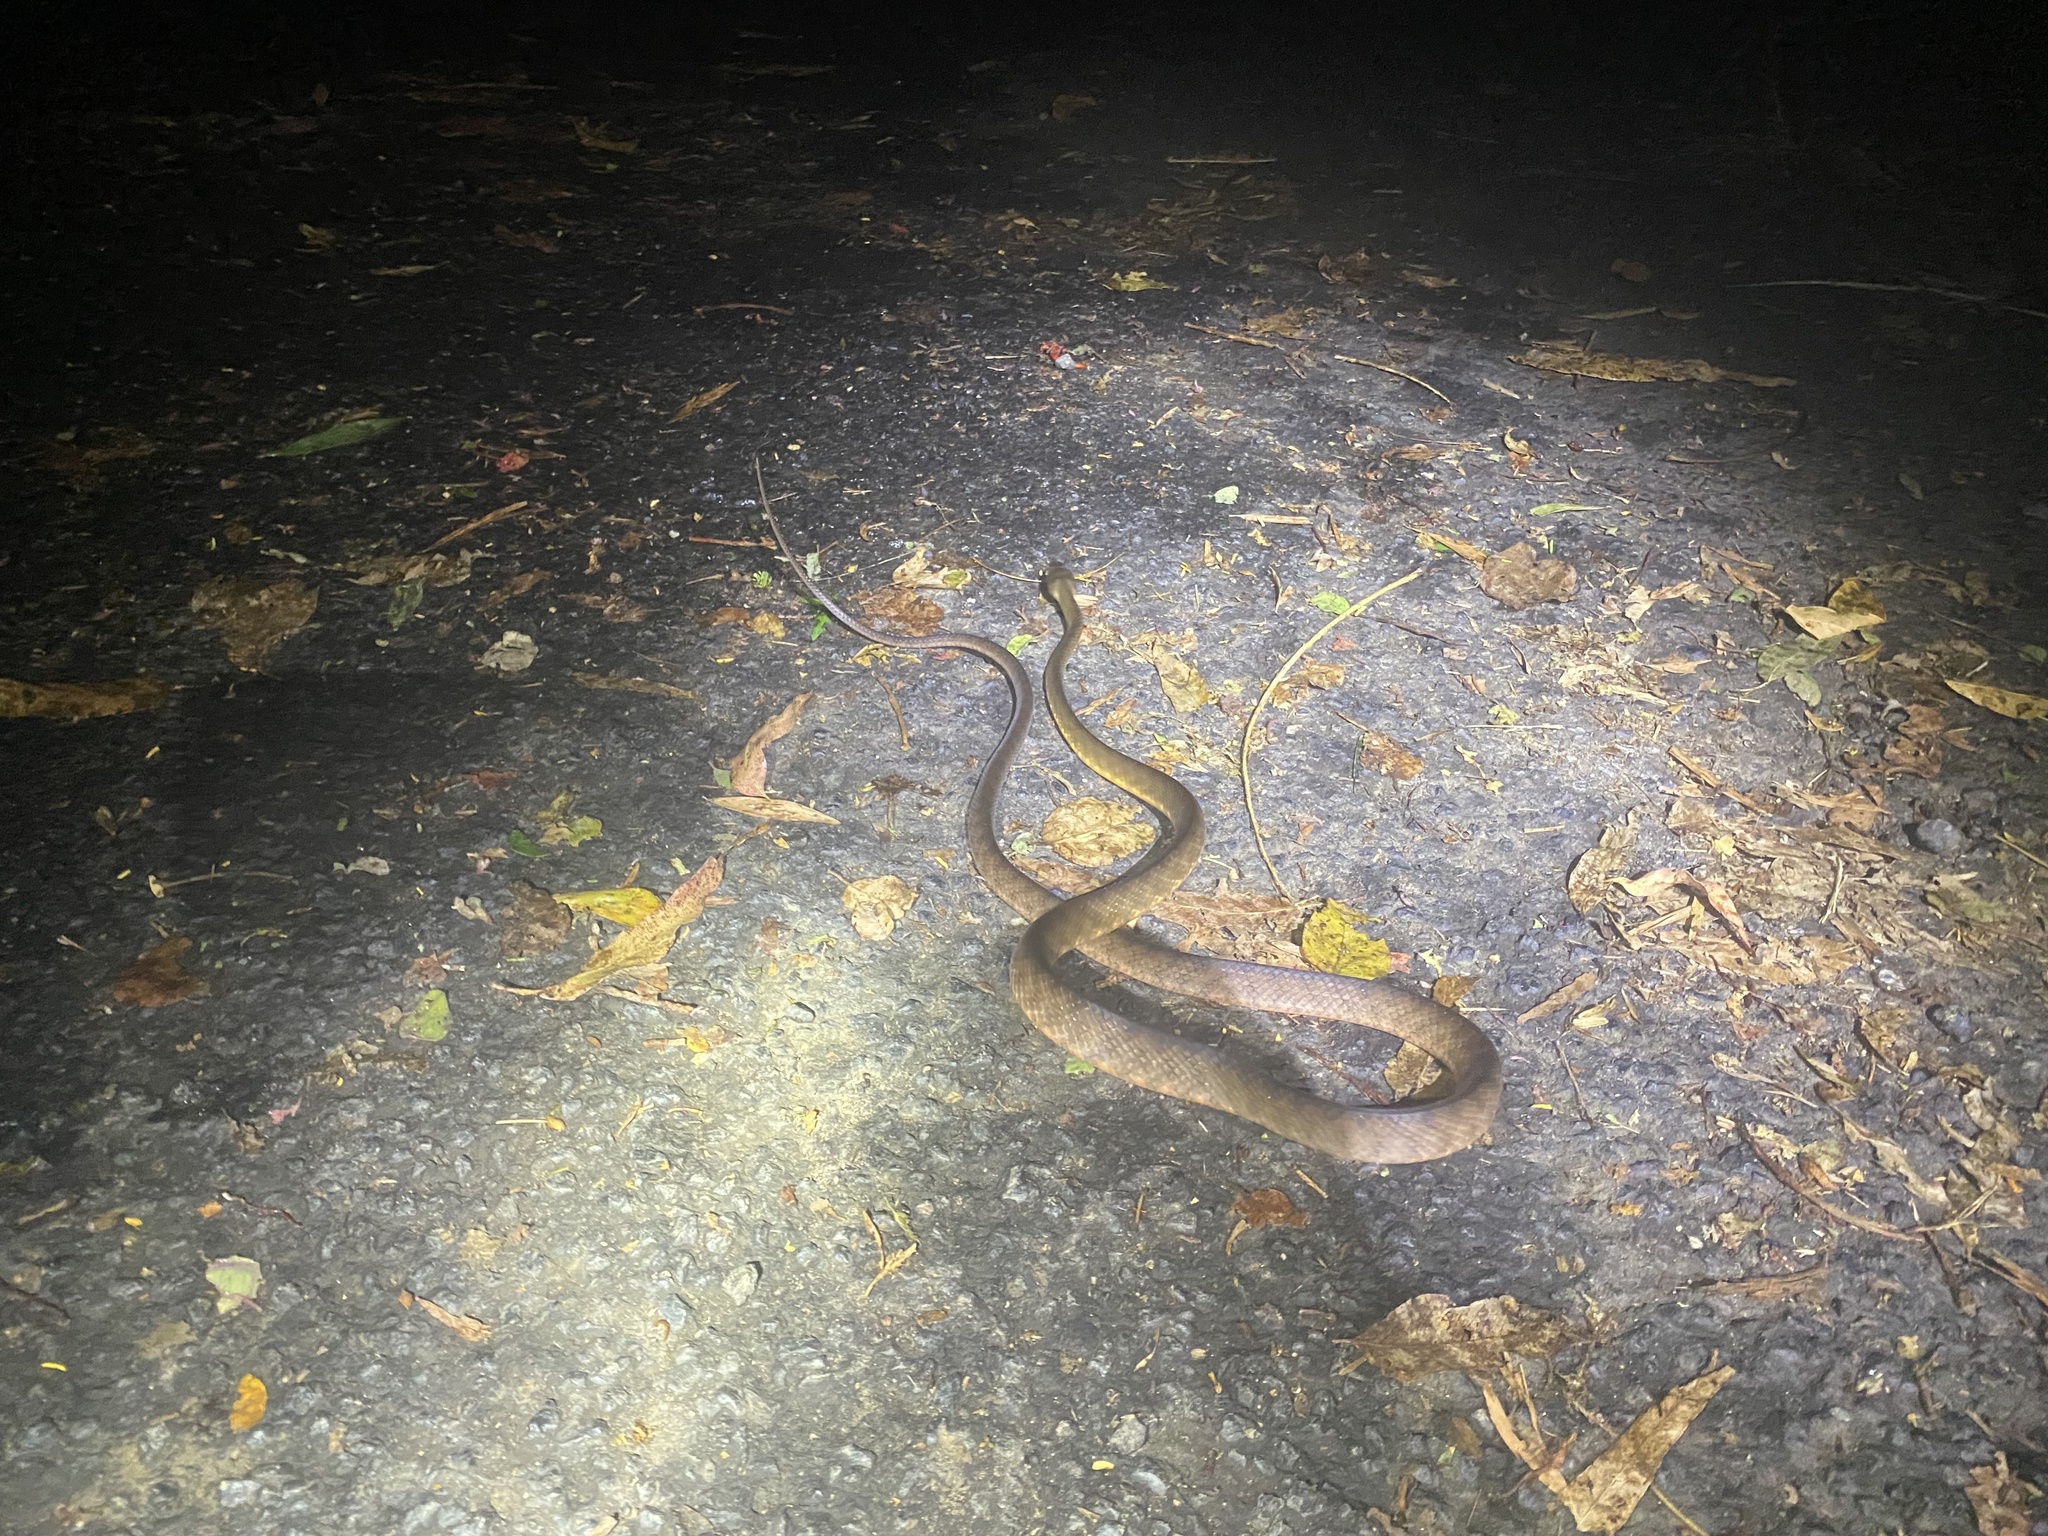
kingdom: Animalia
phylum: Chordata
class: Squamata
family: Colubridae
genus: Boiga
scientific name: Boiga irregularis
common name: Brown tree snake
